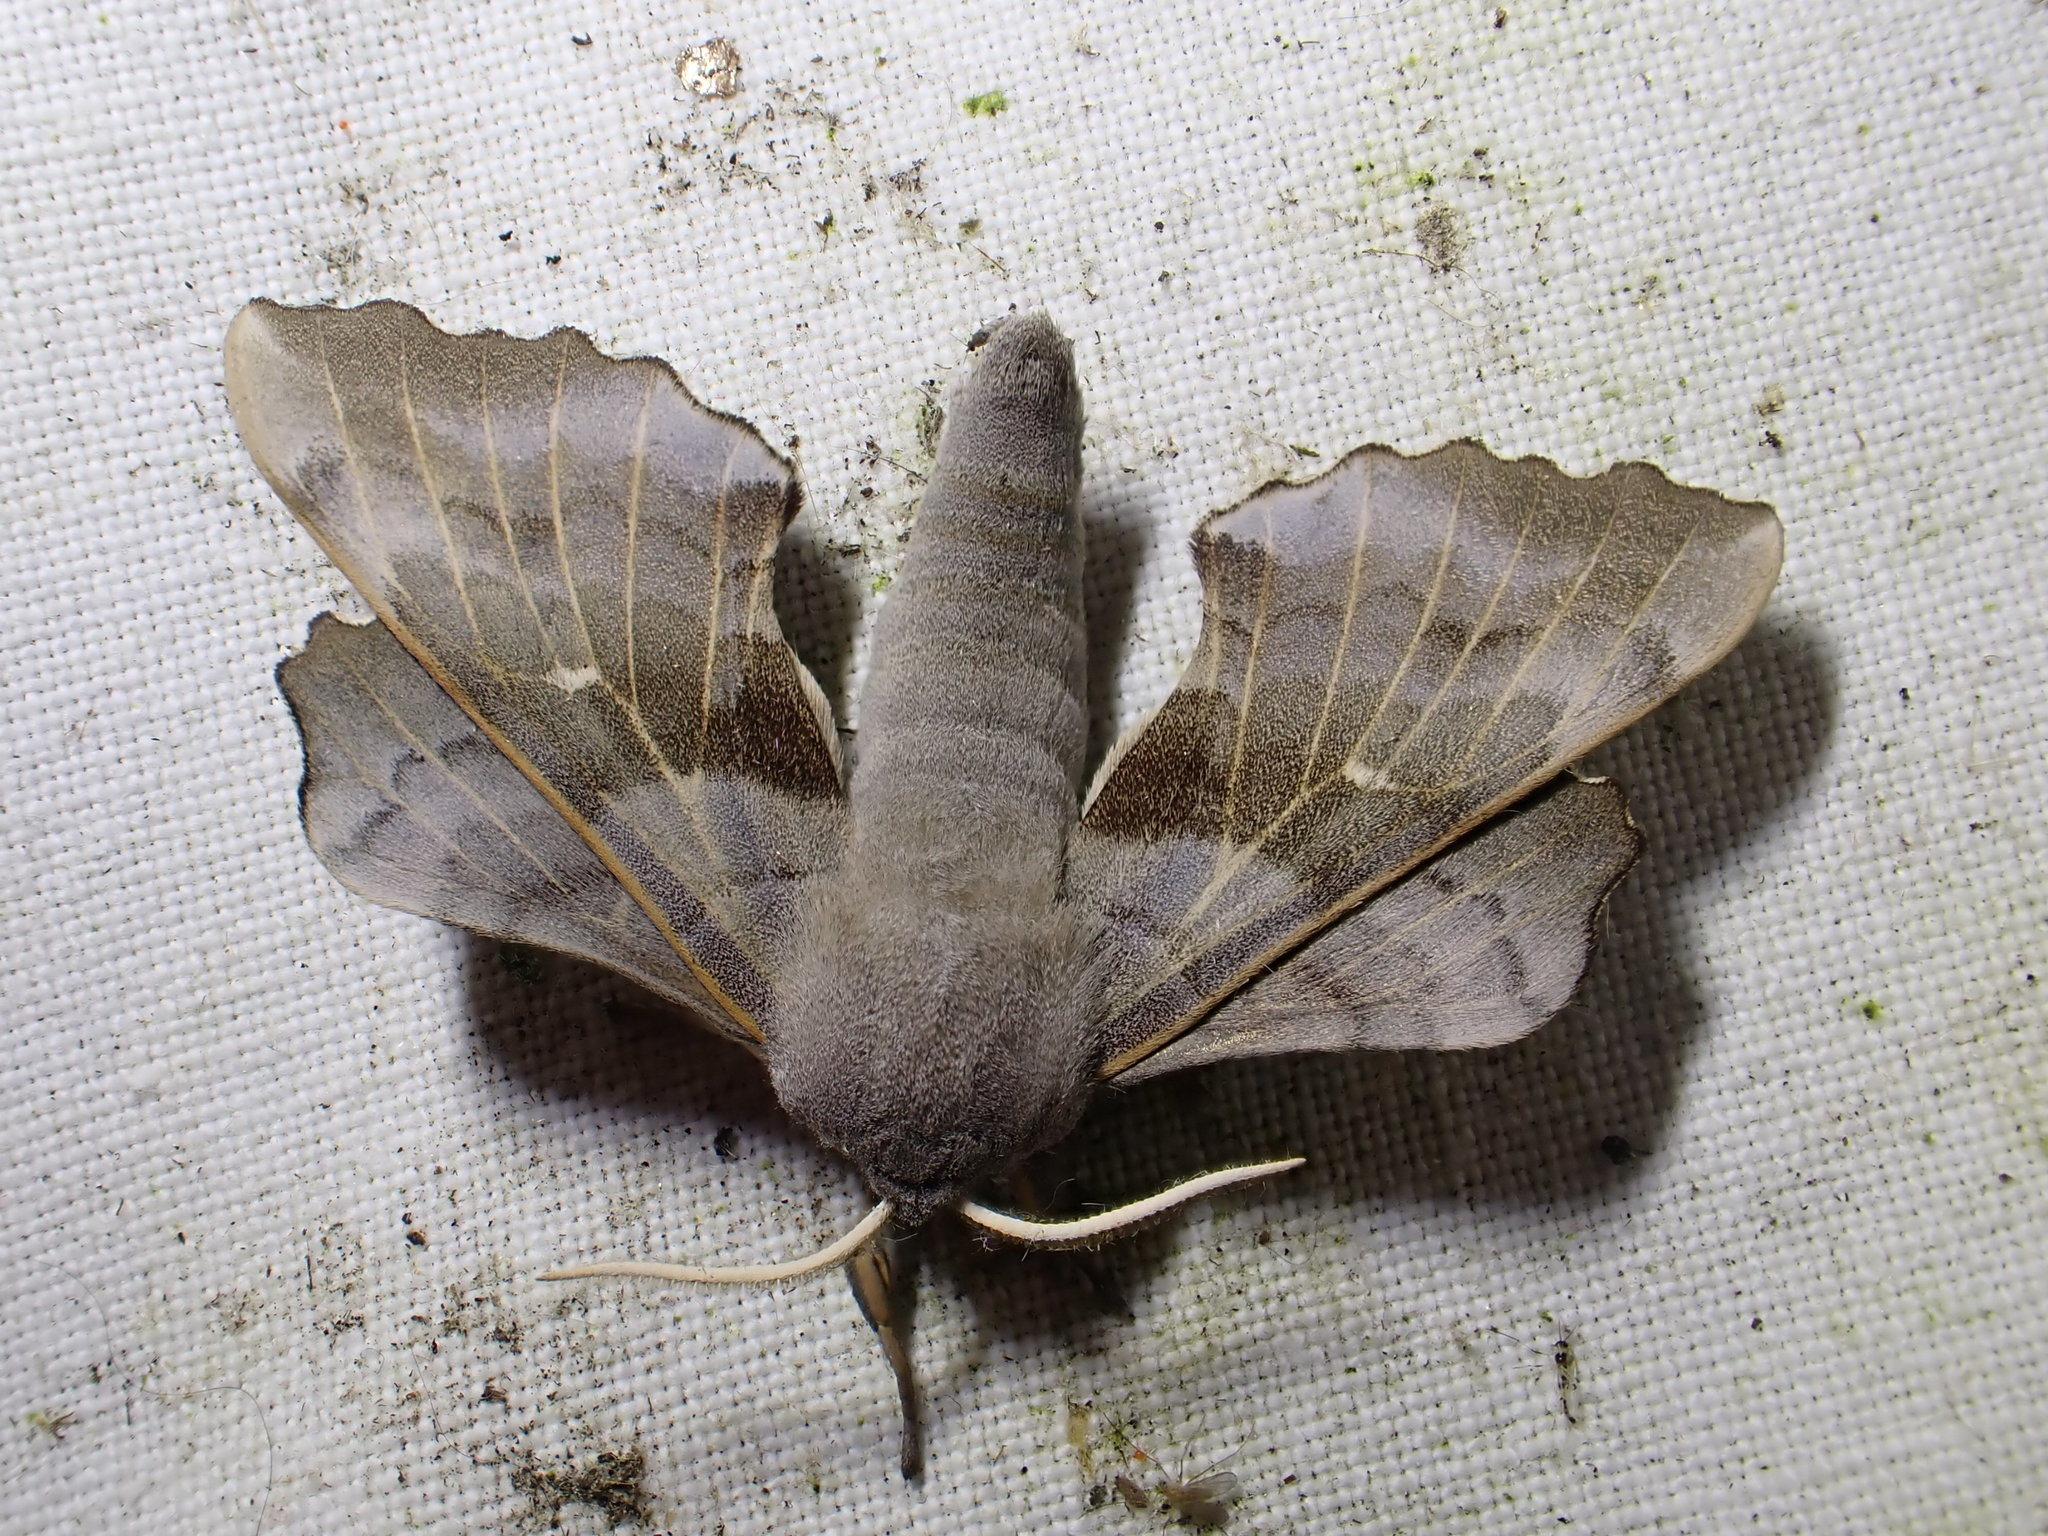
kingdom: Animalia
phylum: Arthropoda
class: Insecta
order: Lepidoptera
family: Sphingidae
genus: Laothoe
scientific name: Laothoe populi
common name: Poplar hawk-moth
